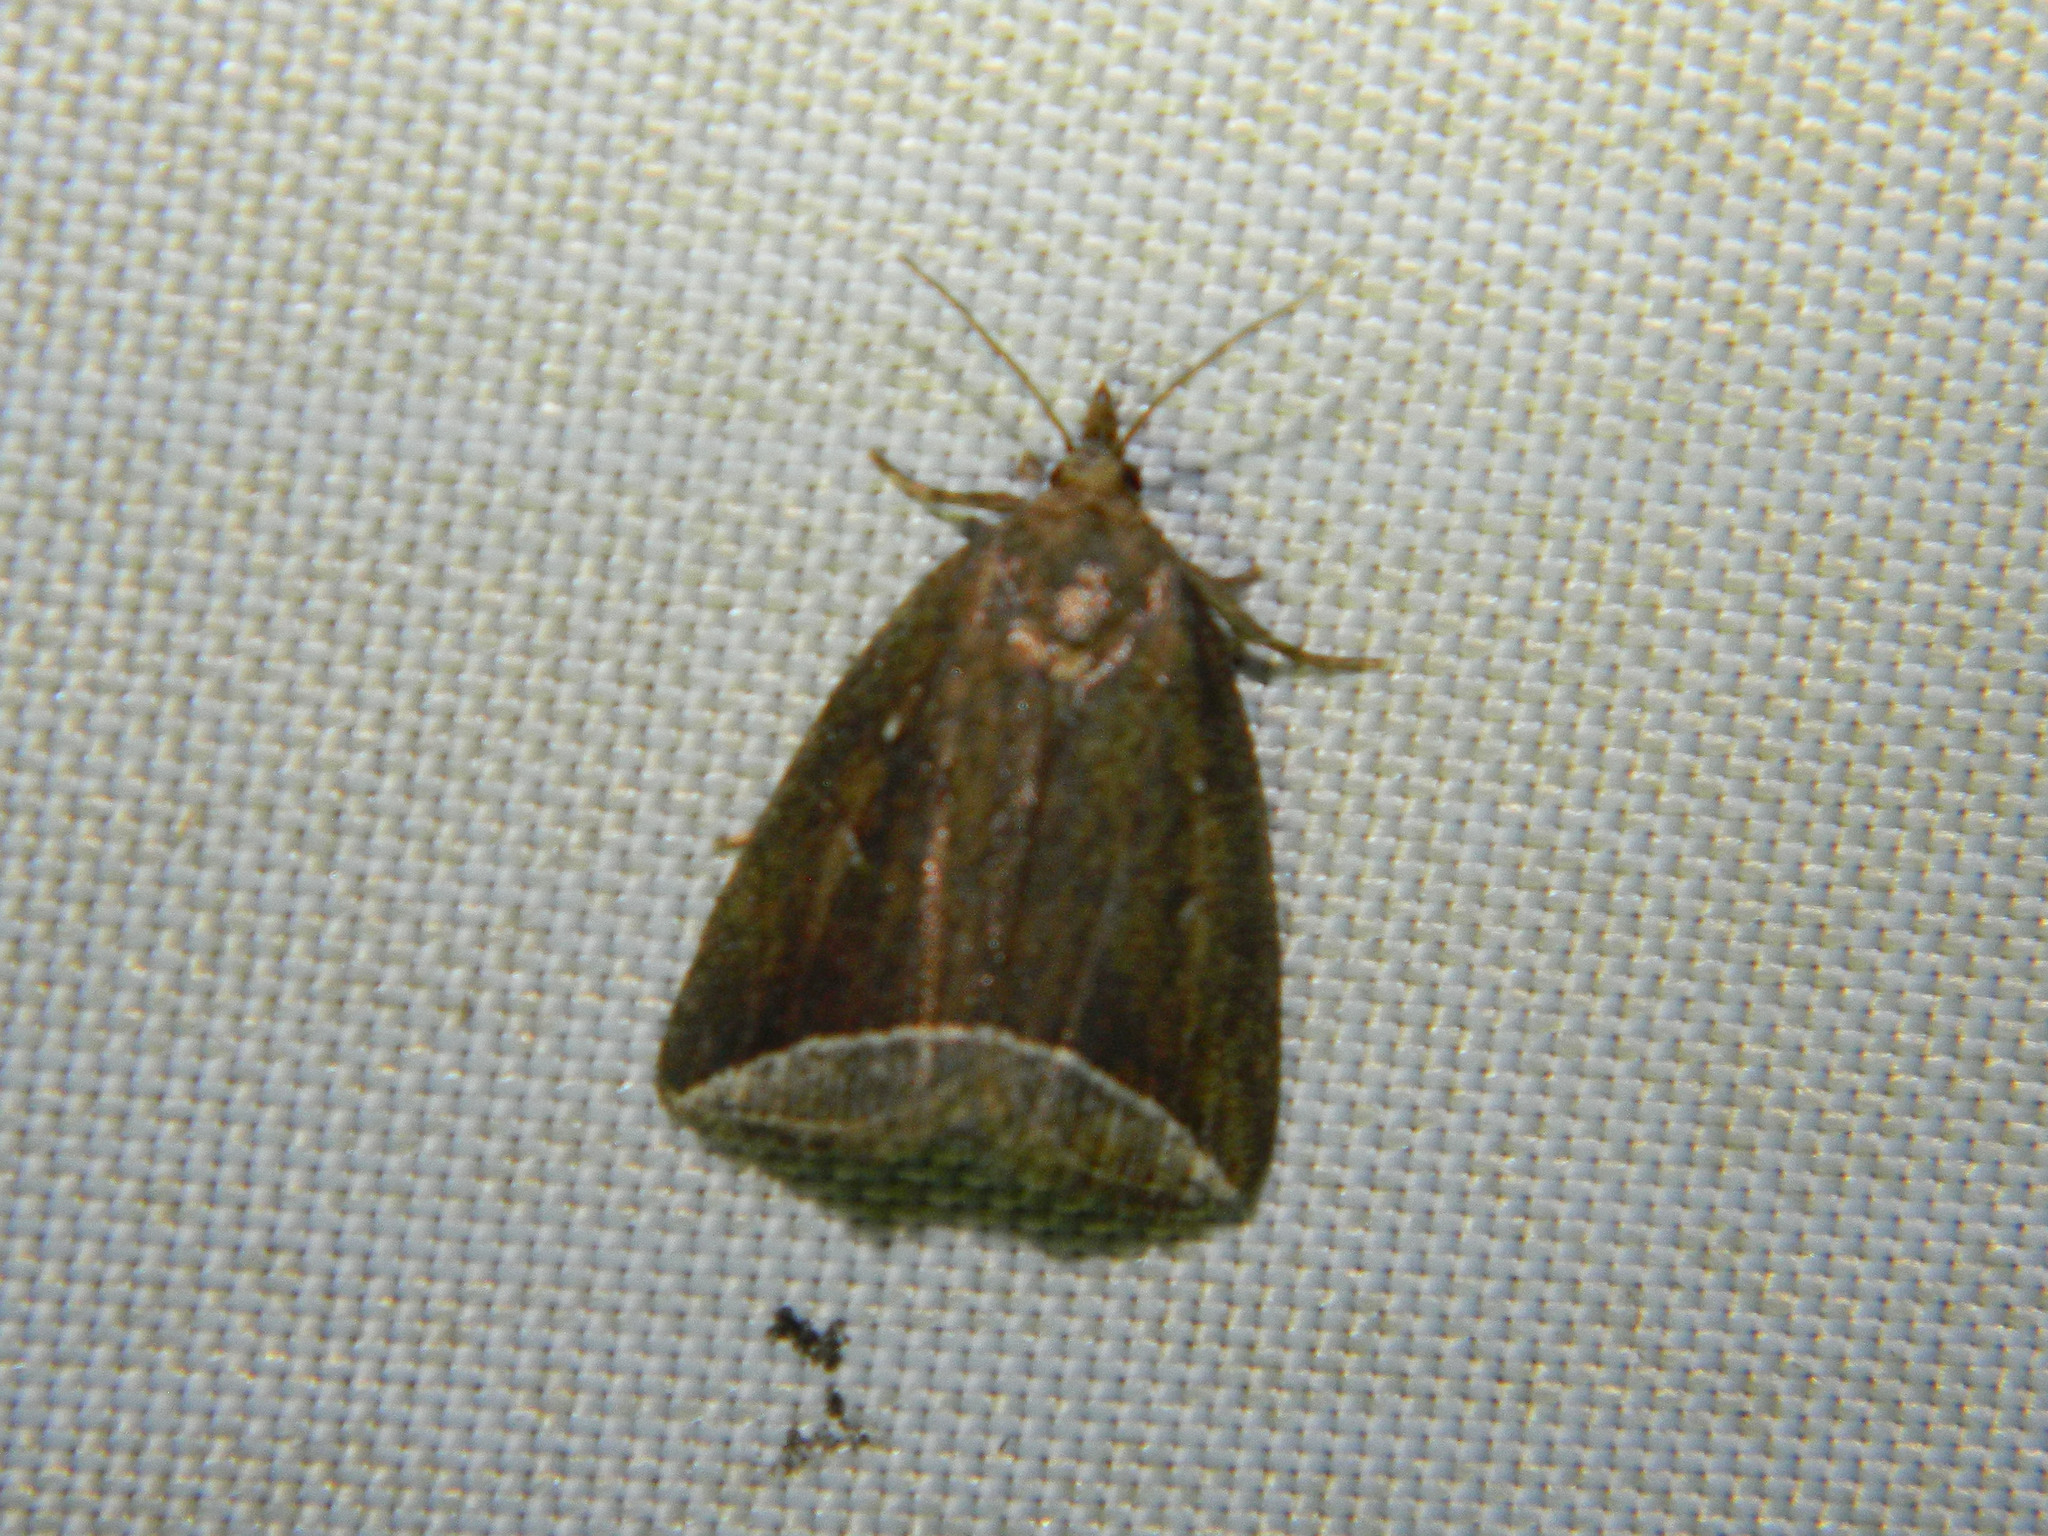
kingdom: Animalia
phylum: Arthropoda
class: Insecta
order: Lepidoptera
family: Erebidae
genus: Capis
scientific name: Capis curvata
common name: Curved halter moth
